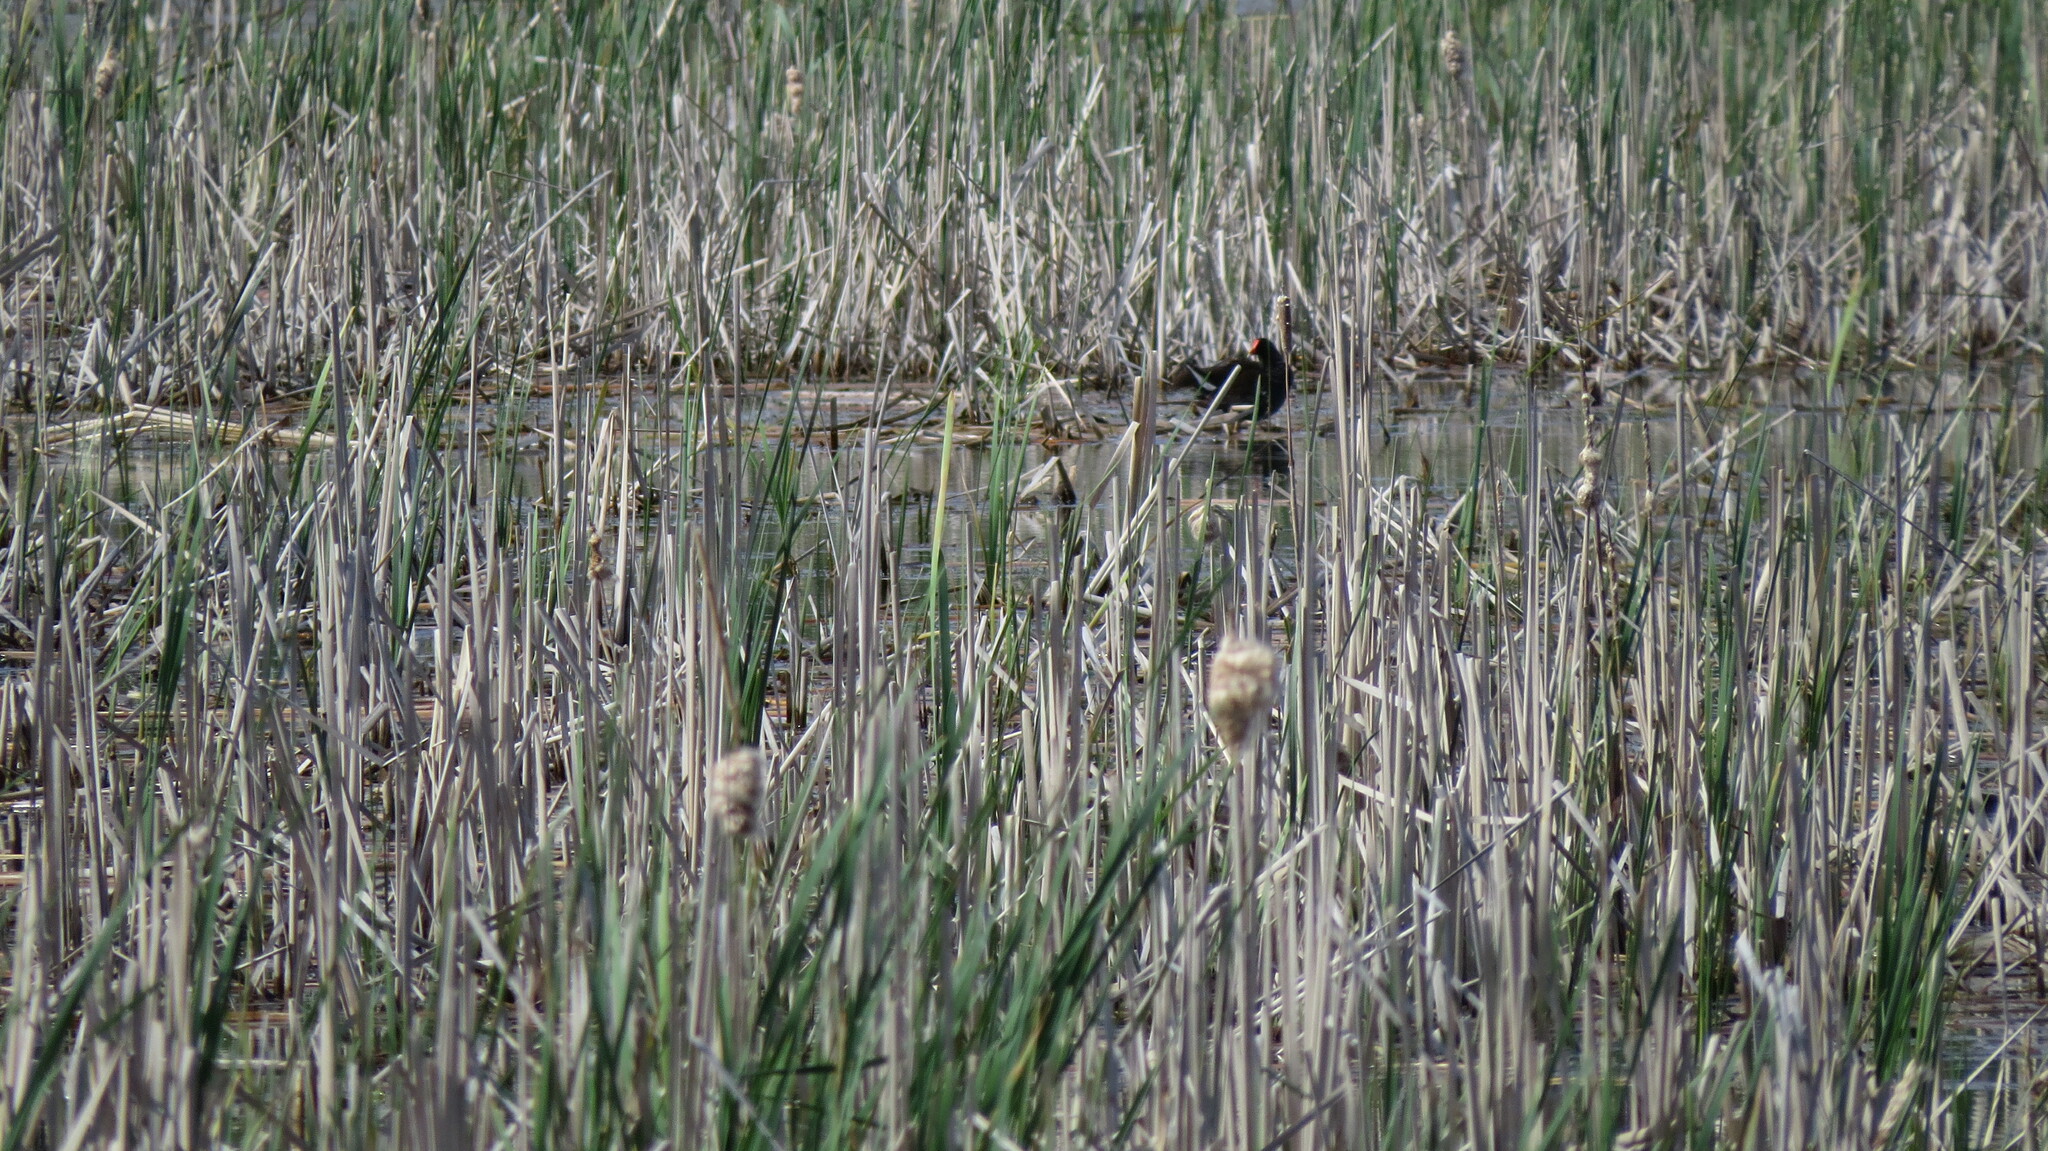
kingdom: Animalia
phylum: Chordata
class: Aves
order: Gruiformes
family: Rallidae
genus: Gallinula
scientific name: Gallinula chloropus
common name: Common moorhen
